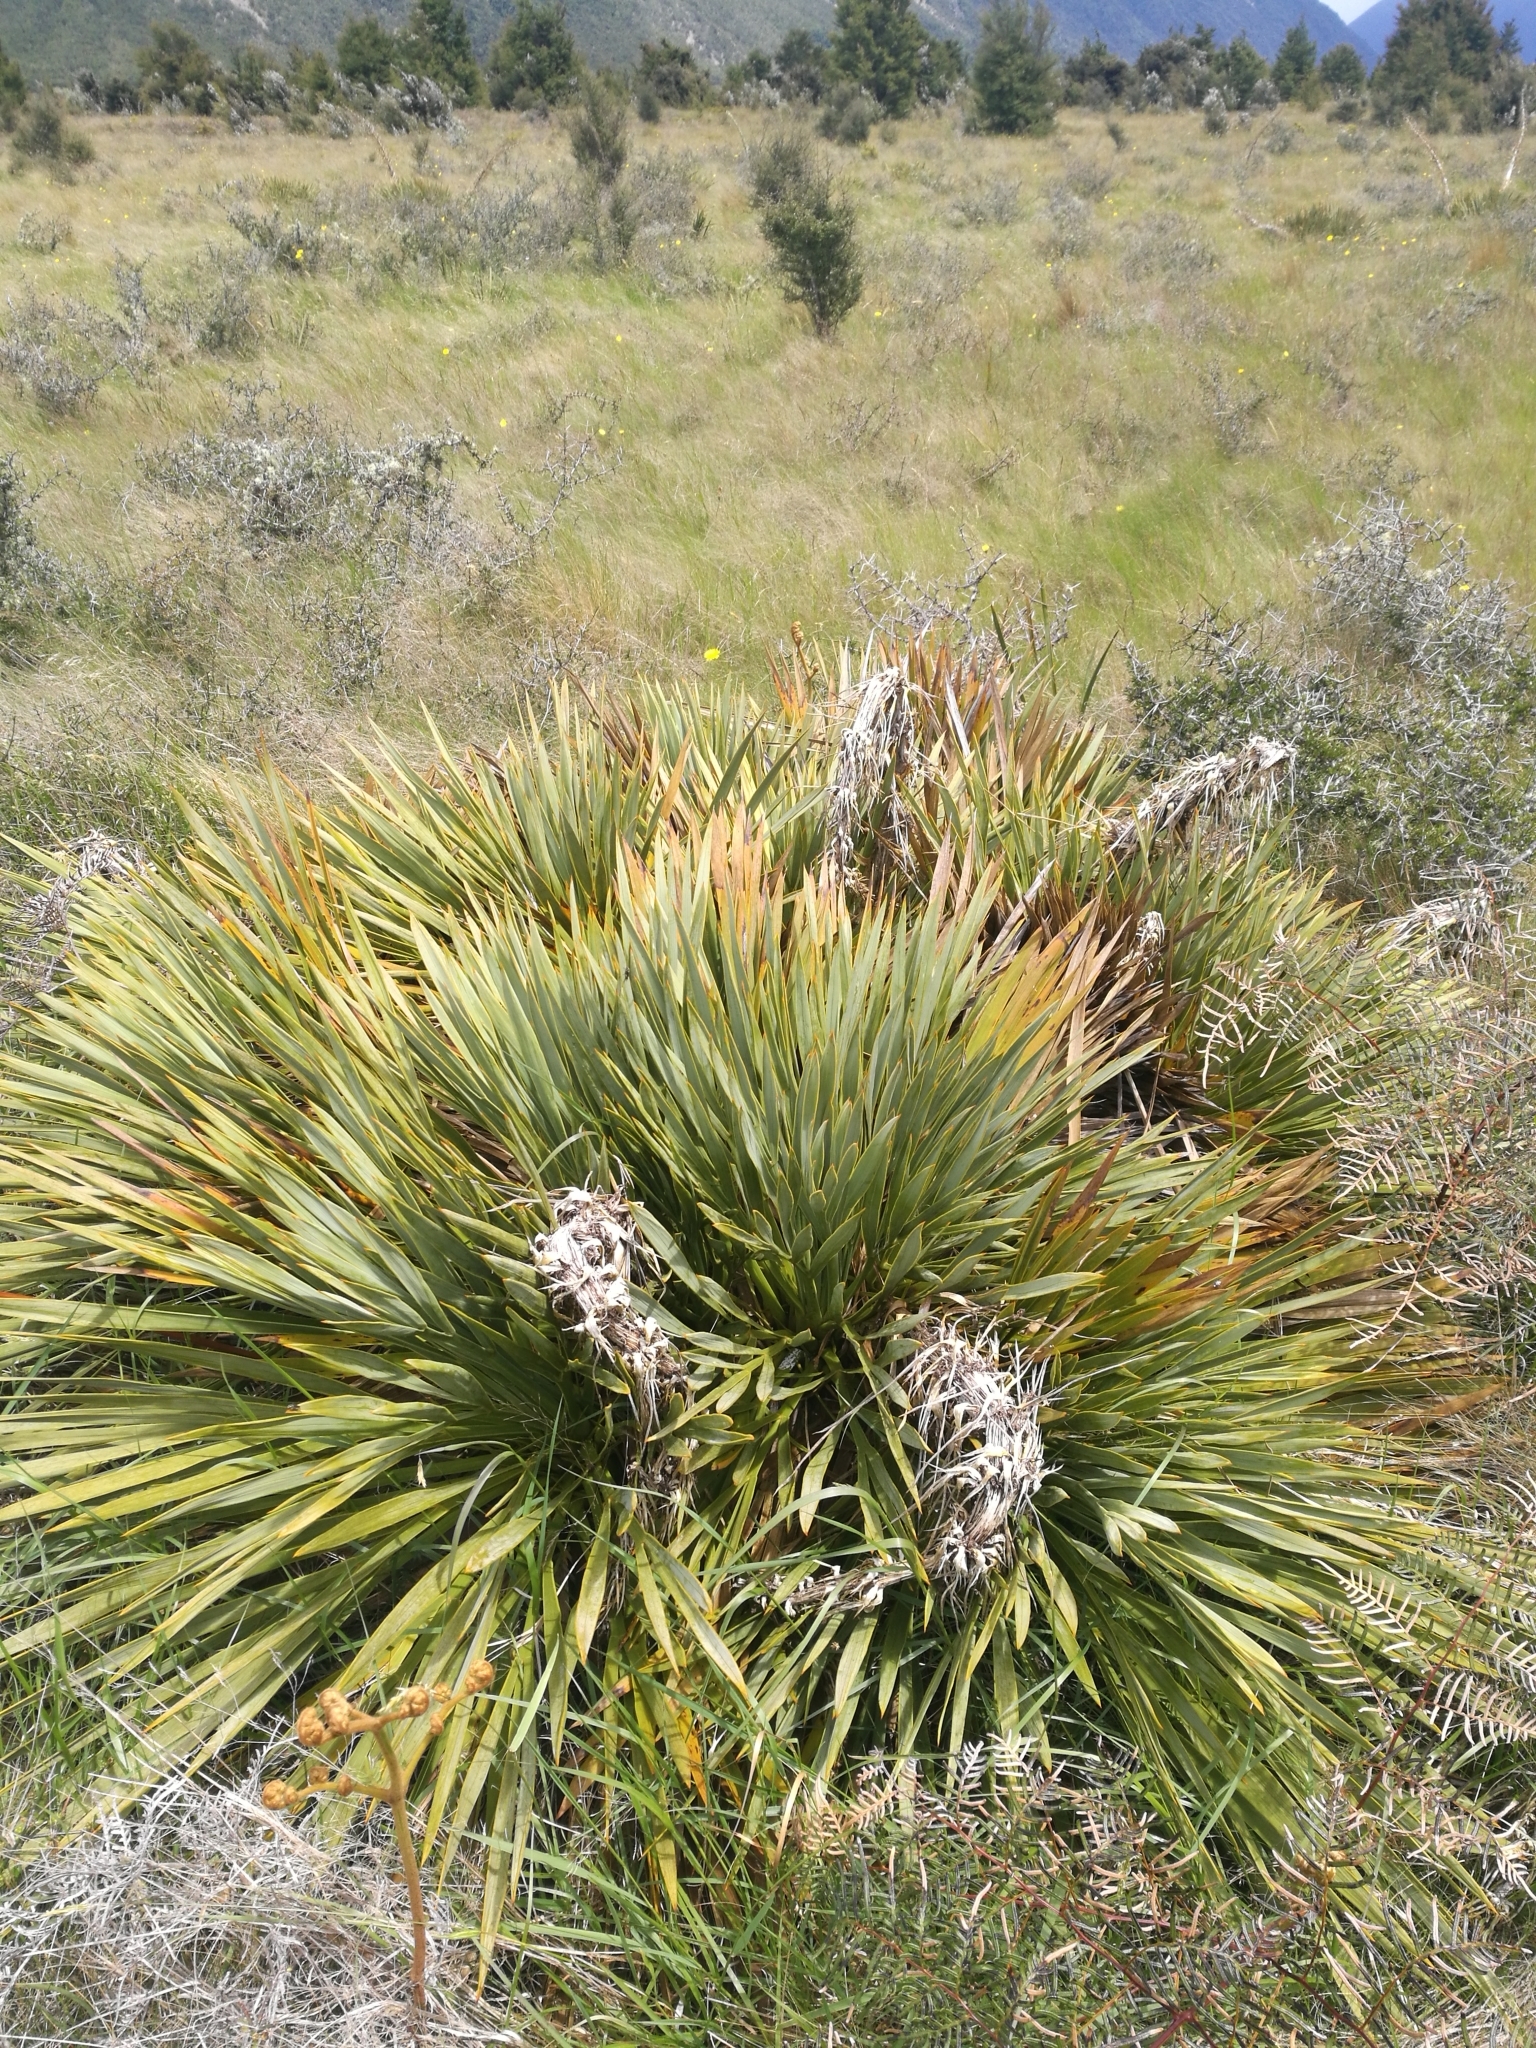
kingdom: Plantae
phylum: Tracheophyta
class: Magnoliopsida
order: Apiales
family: Apiaceae
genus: Aciphylla
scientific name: Aciphylla aurea
